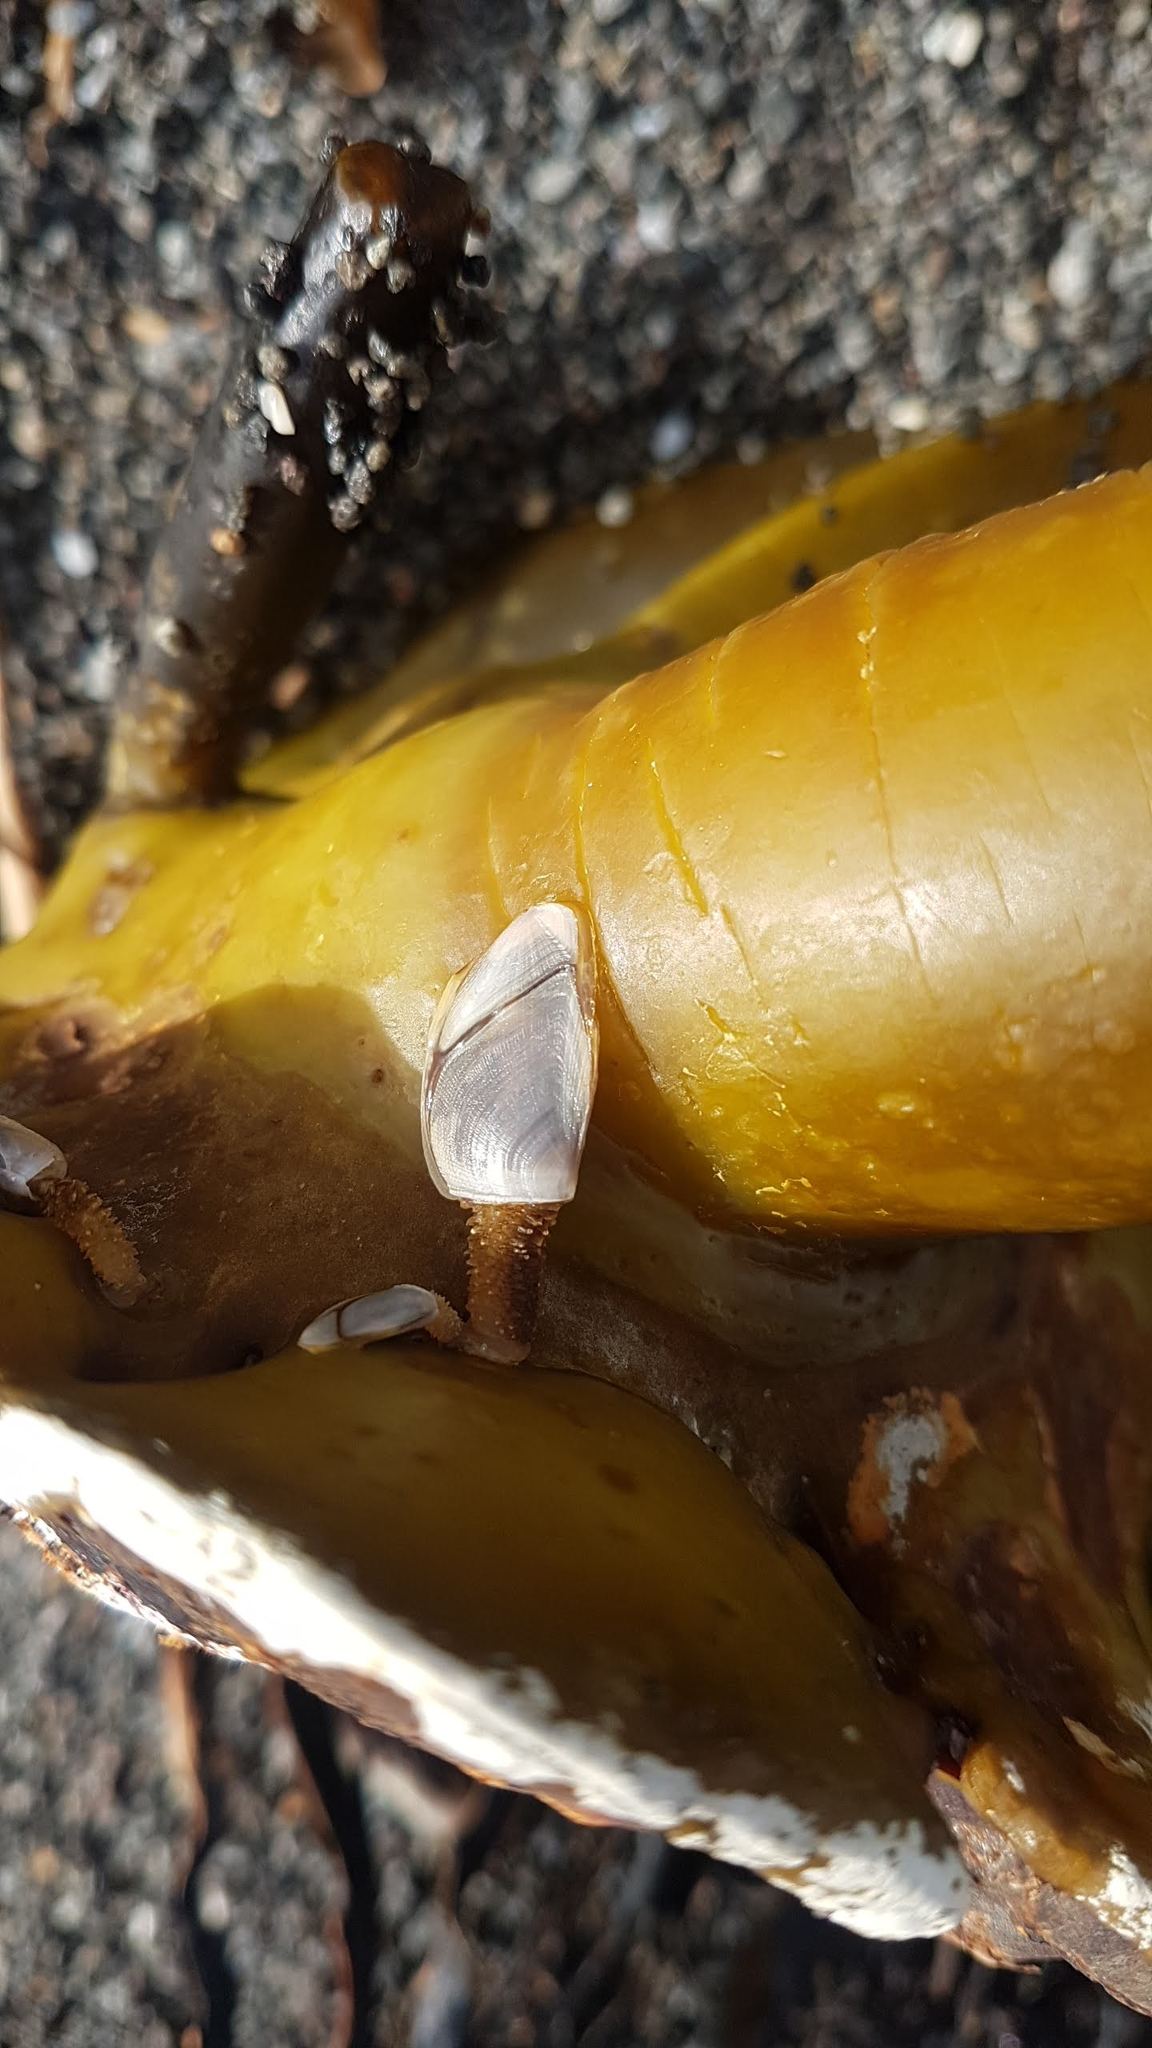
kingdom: Animalia
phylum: Arthropoda
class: Maxillopoda
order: Pedunculata
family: Lepadidae
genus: Lepas
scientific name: Lepas anatifera
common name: Common goose barnacle
